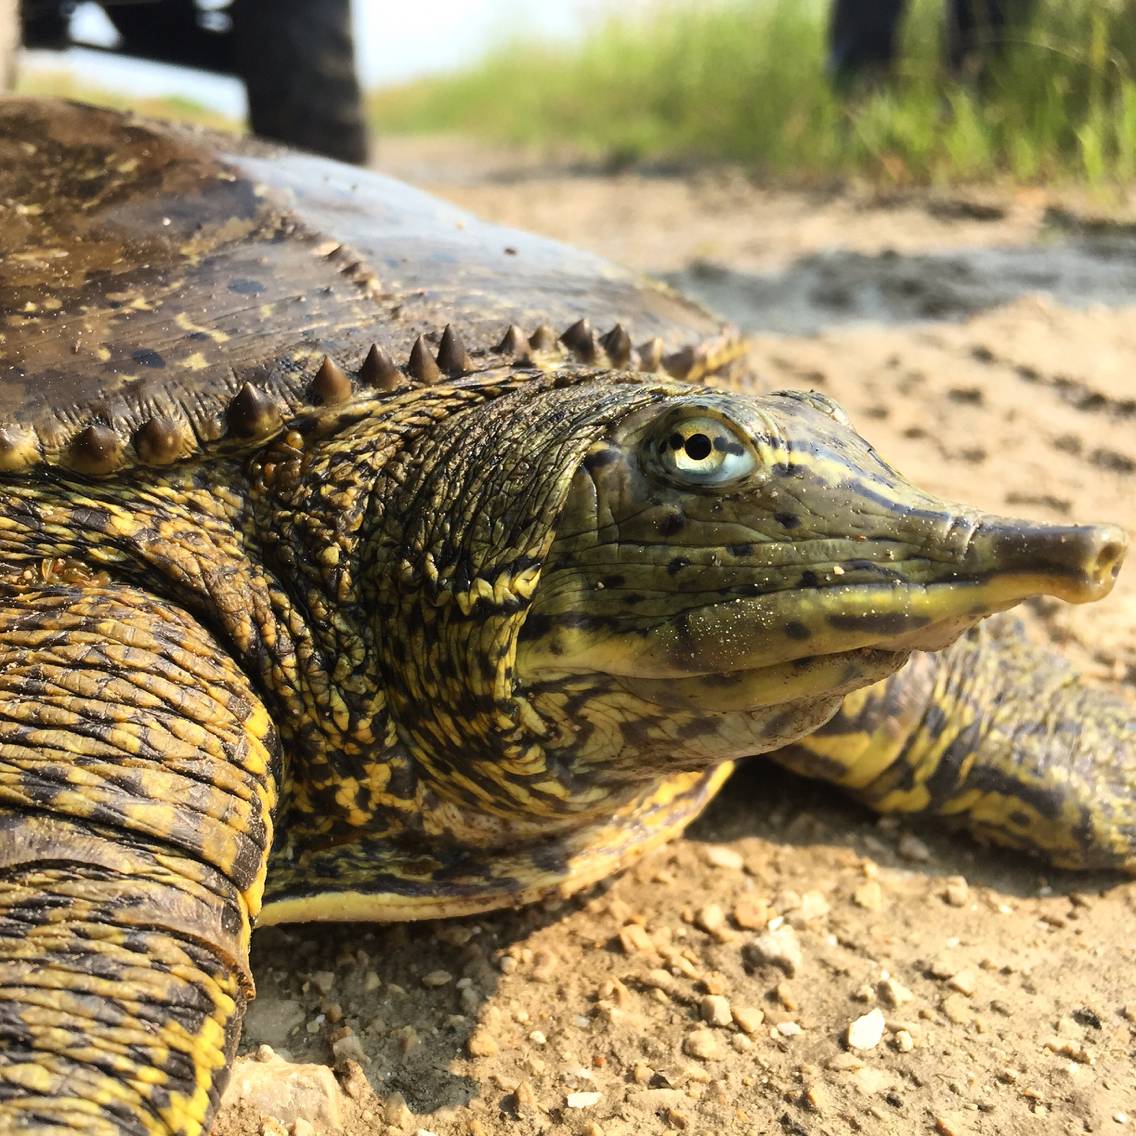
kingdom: Animalia
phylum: Chordata
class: Testudines
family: Trionychidae
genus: Apalone
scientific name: Apalone spinifera
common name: Spiny softshell turtle
